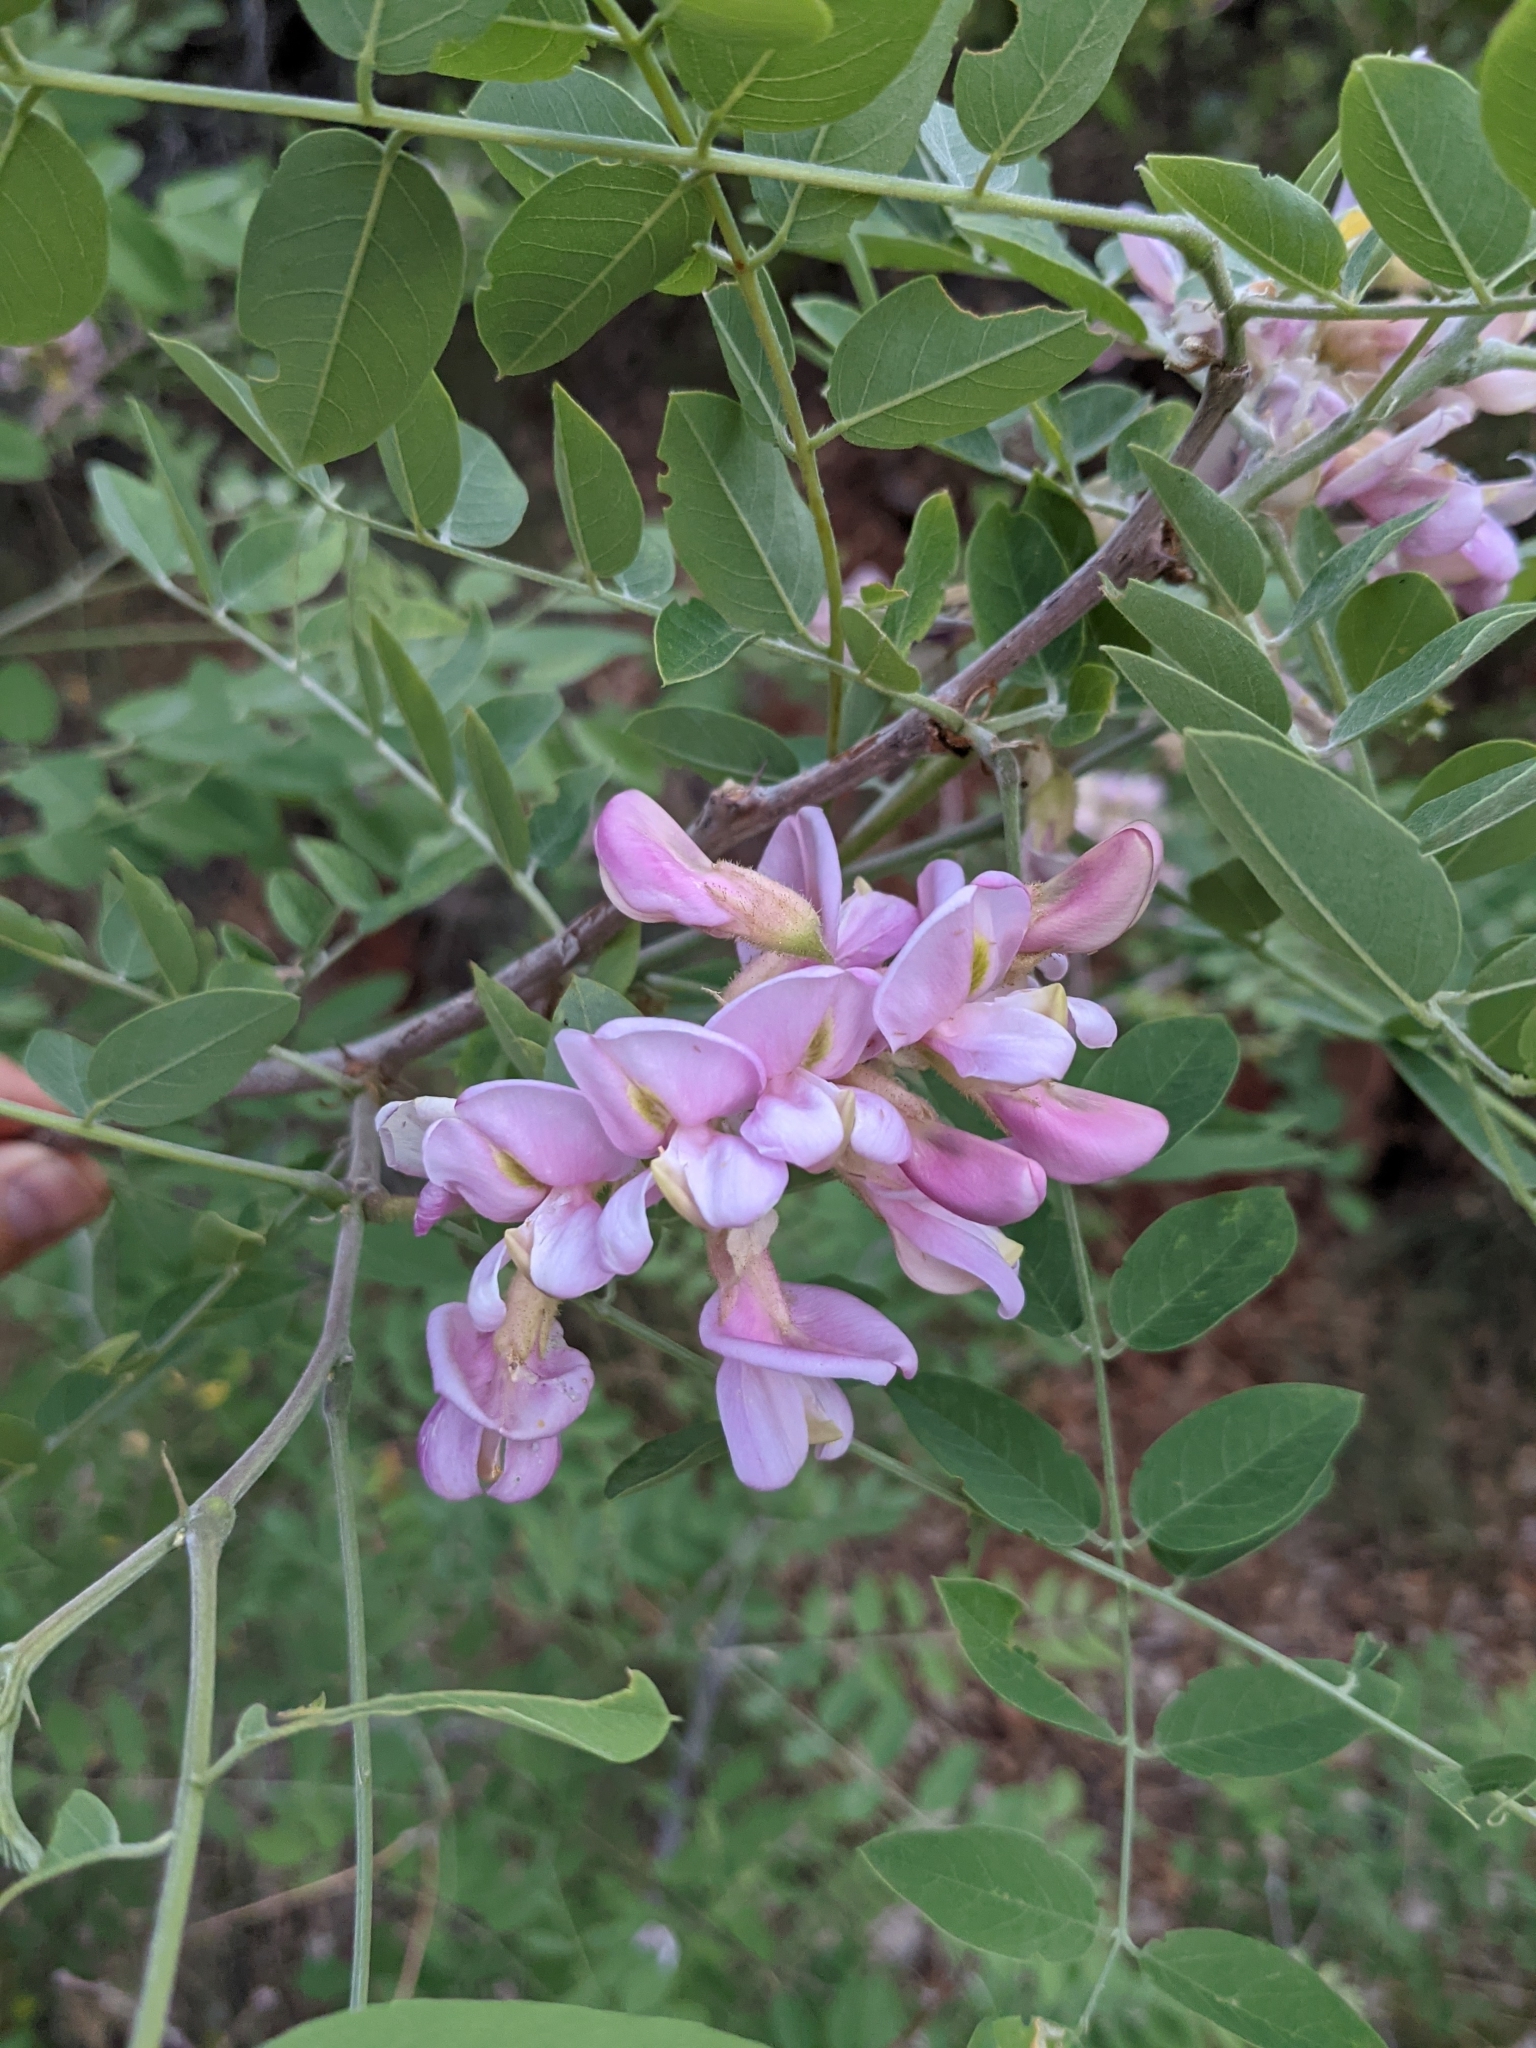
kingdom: Plantae
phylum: Tracheophyta
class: Magnoliopsida
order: Fabales
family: Fabaceae
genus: Robinia
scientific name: Robinia neomexicana
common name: New mexico locust
